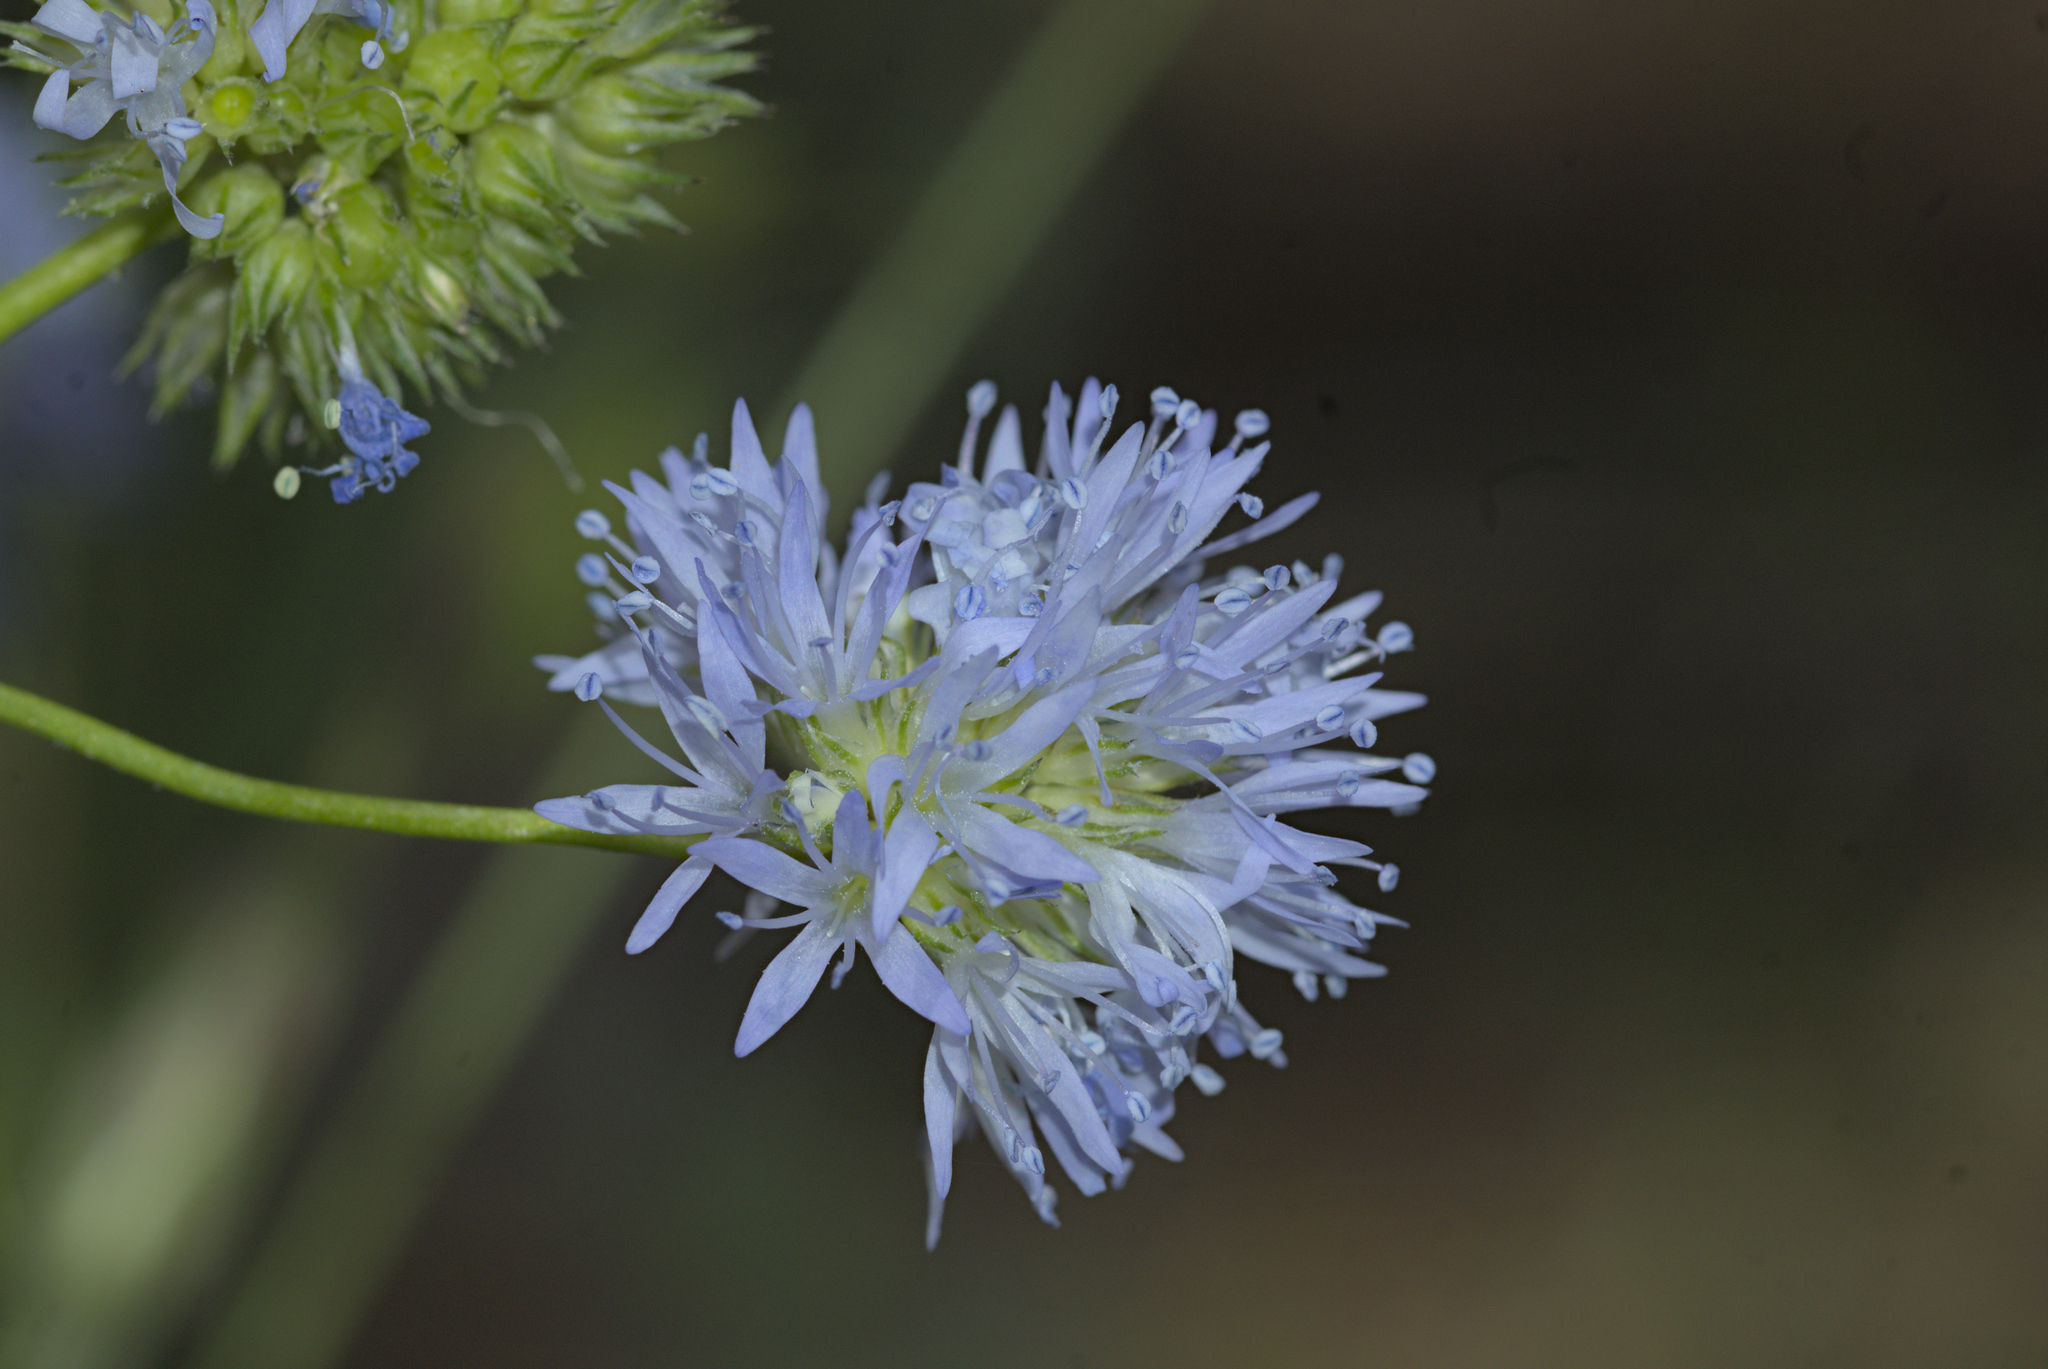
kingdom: Plantae
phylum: Tracheophyta
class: Magnoliopsida
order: Ericales
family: Polemoniaceae
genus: Gilia
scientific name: Gilia capitata
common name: Bluehead gilia
